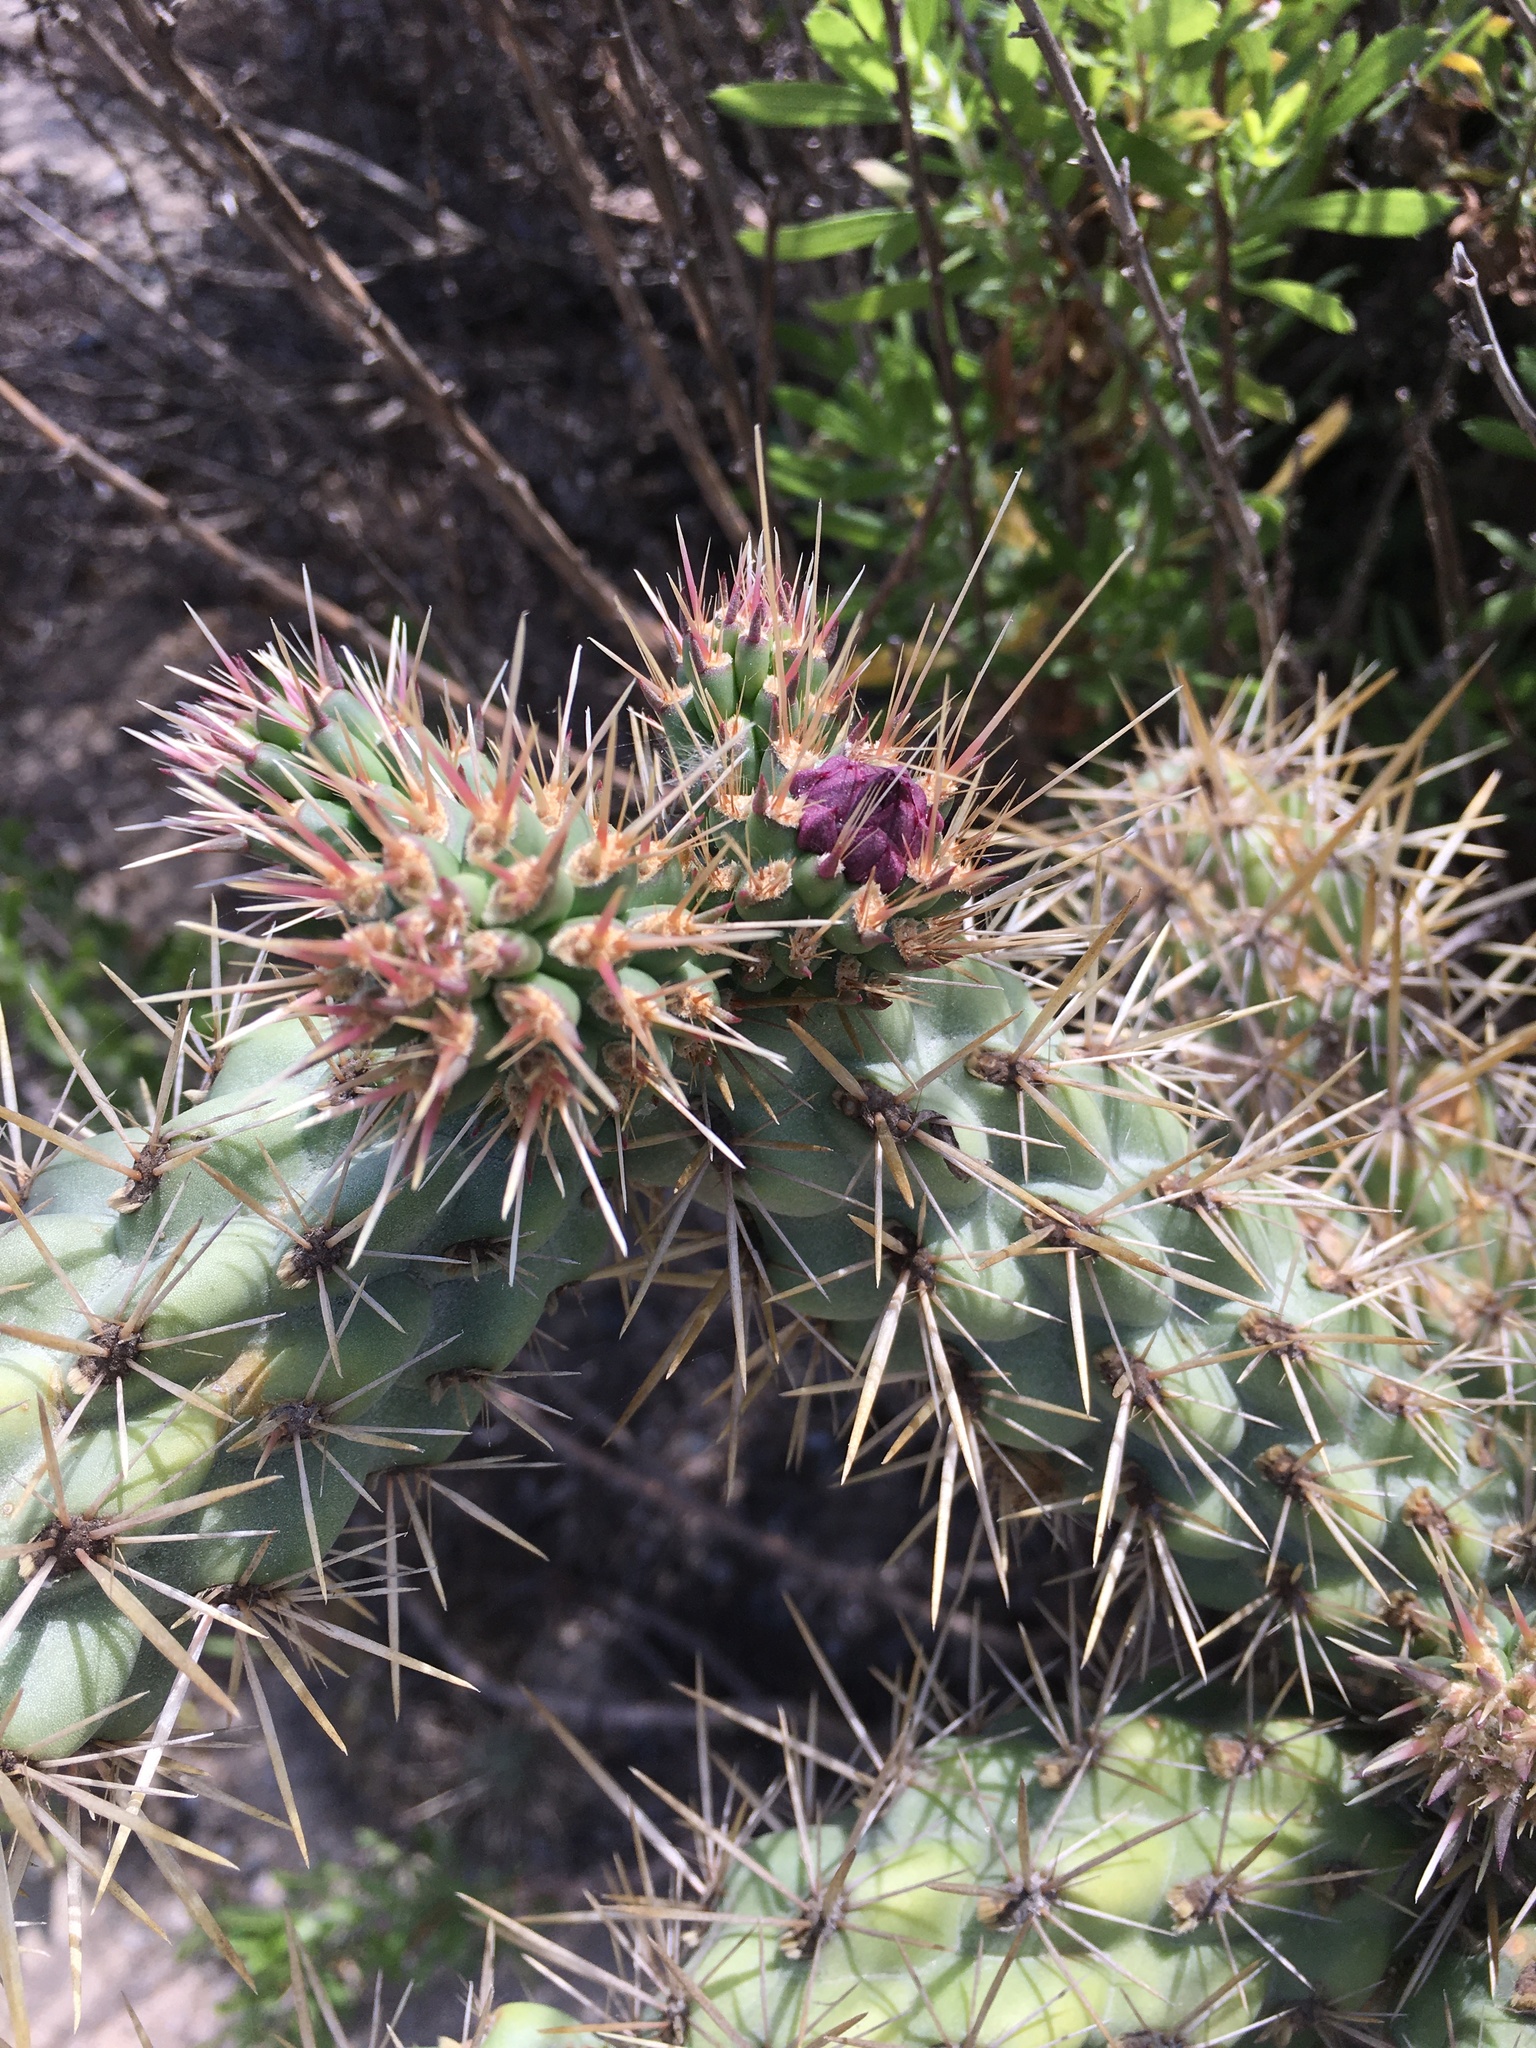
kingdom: Plantae
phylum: Tracheophyta
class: Magnoliopsida
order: Caryophyllales
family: Cactaceae
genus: Cylindropuntia
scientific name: Cylindropuntia prolifera
